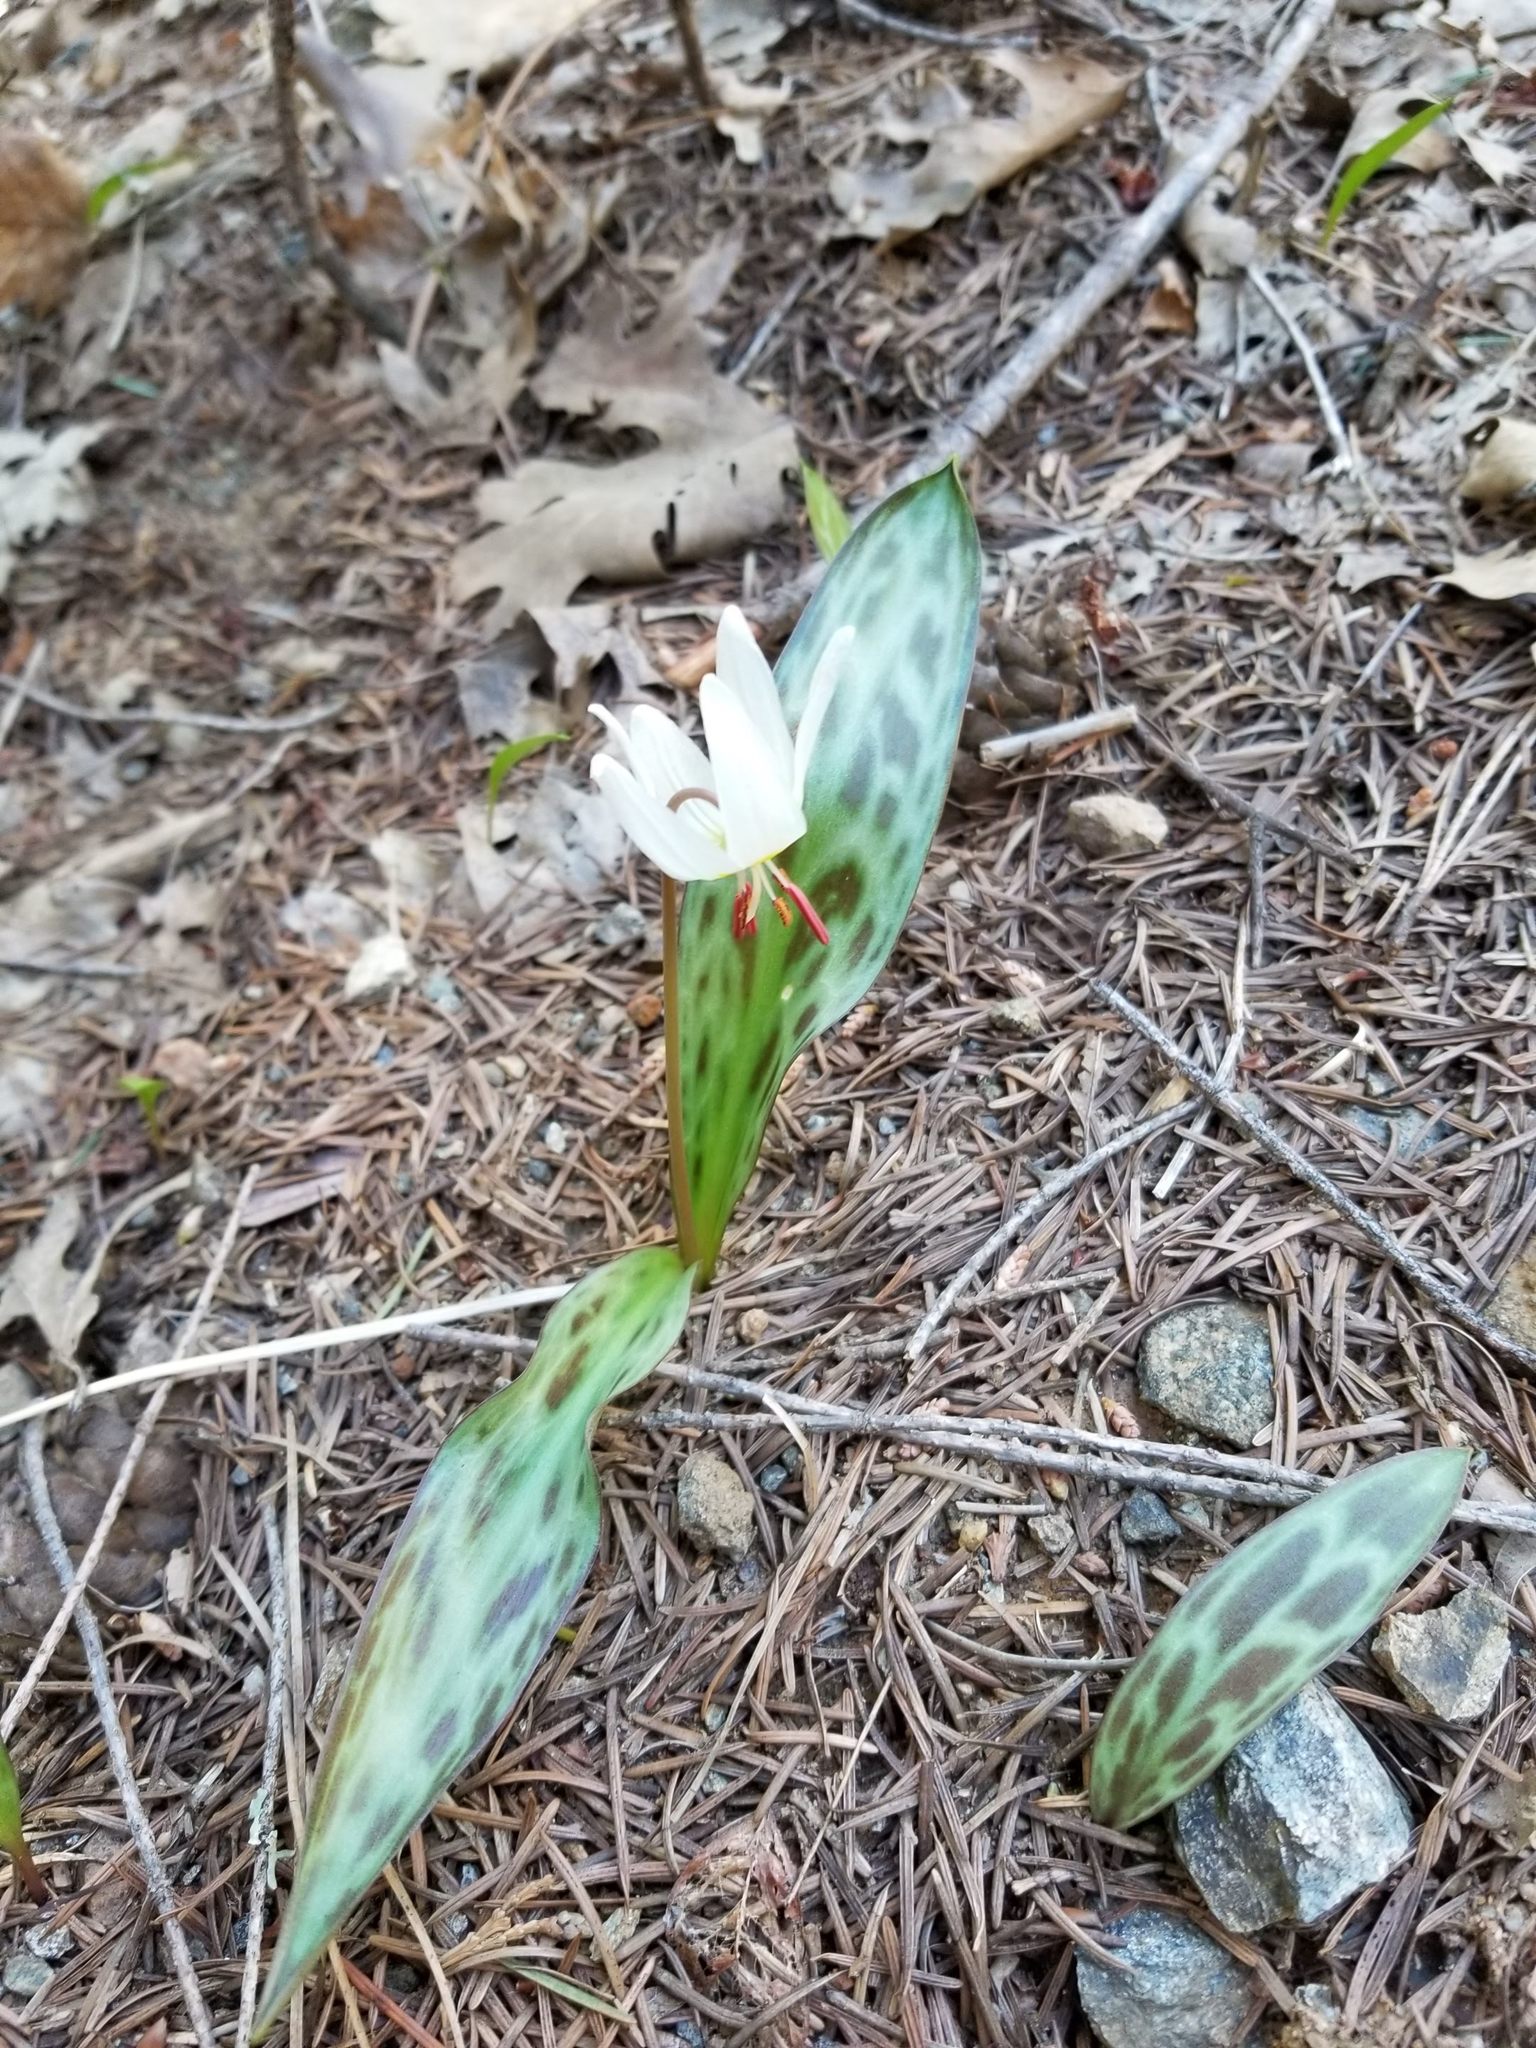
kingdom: Plantae
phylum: Tracheophyta
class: Liliopsida
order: Liliales
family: Liliaceae
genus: Erythronium
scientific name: Erythronium citrinum
